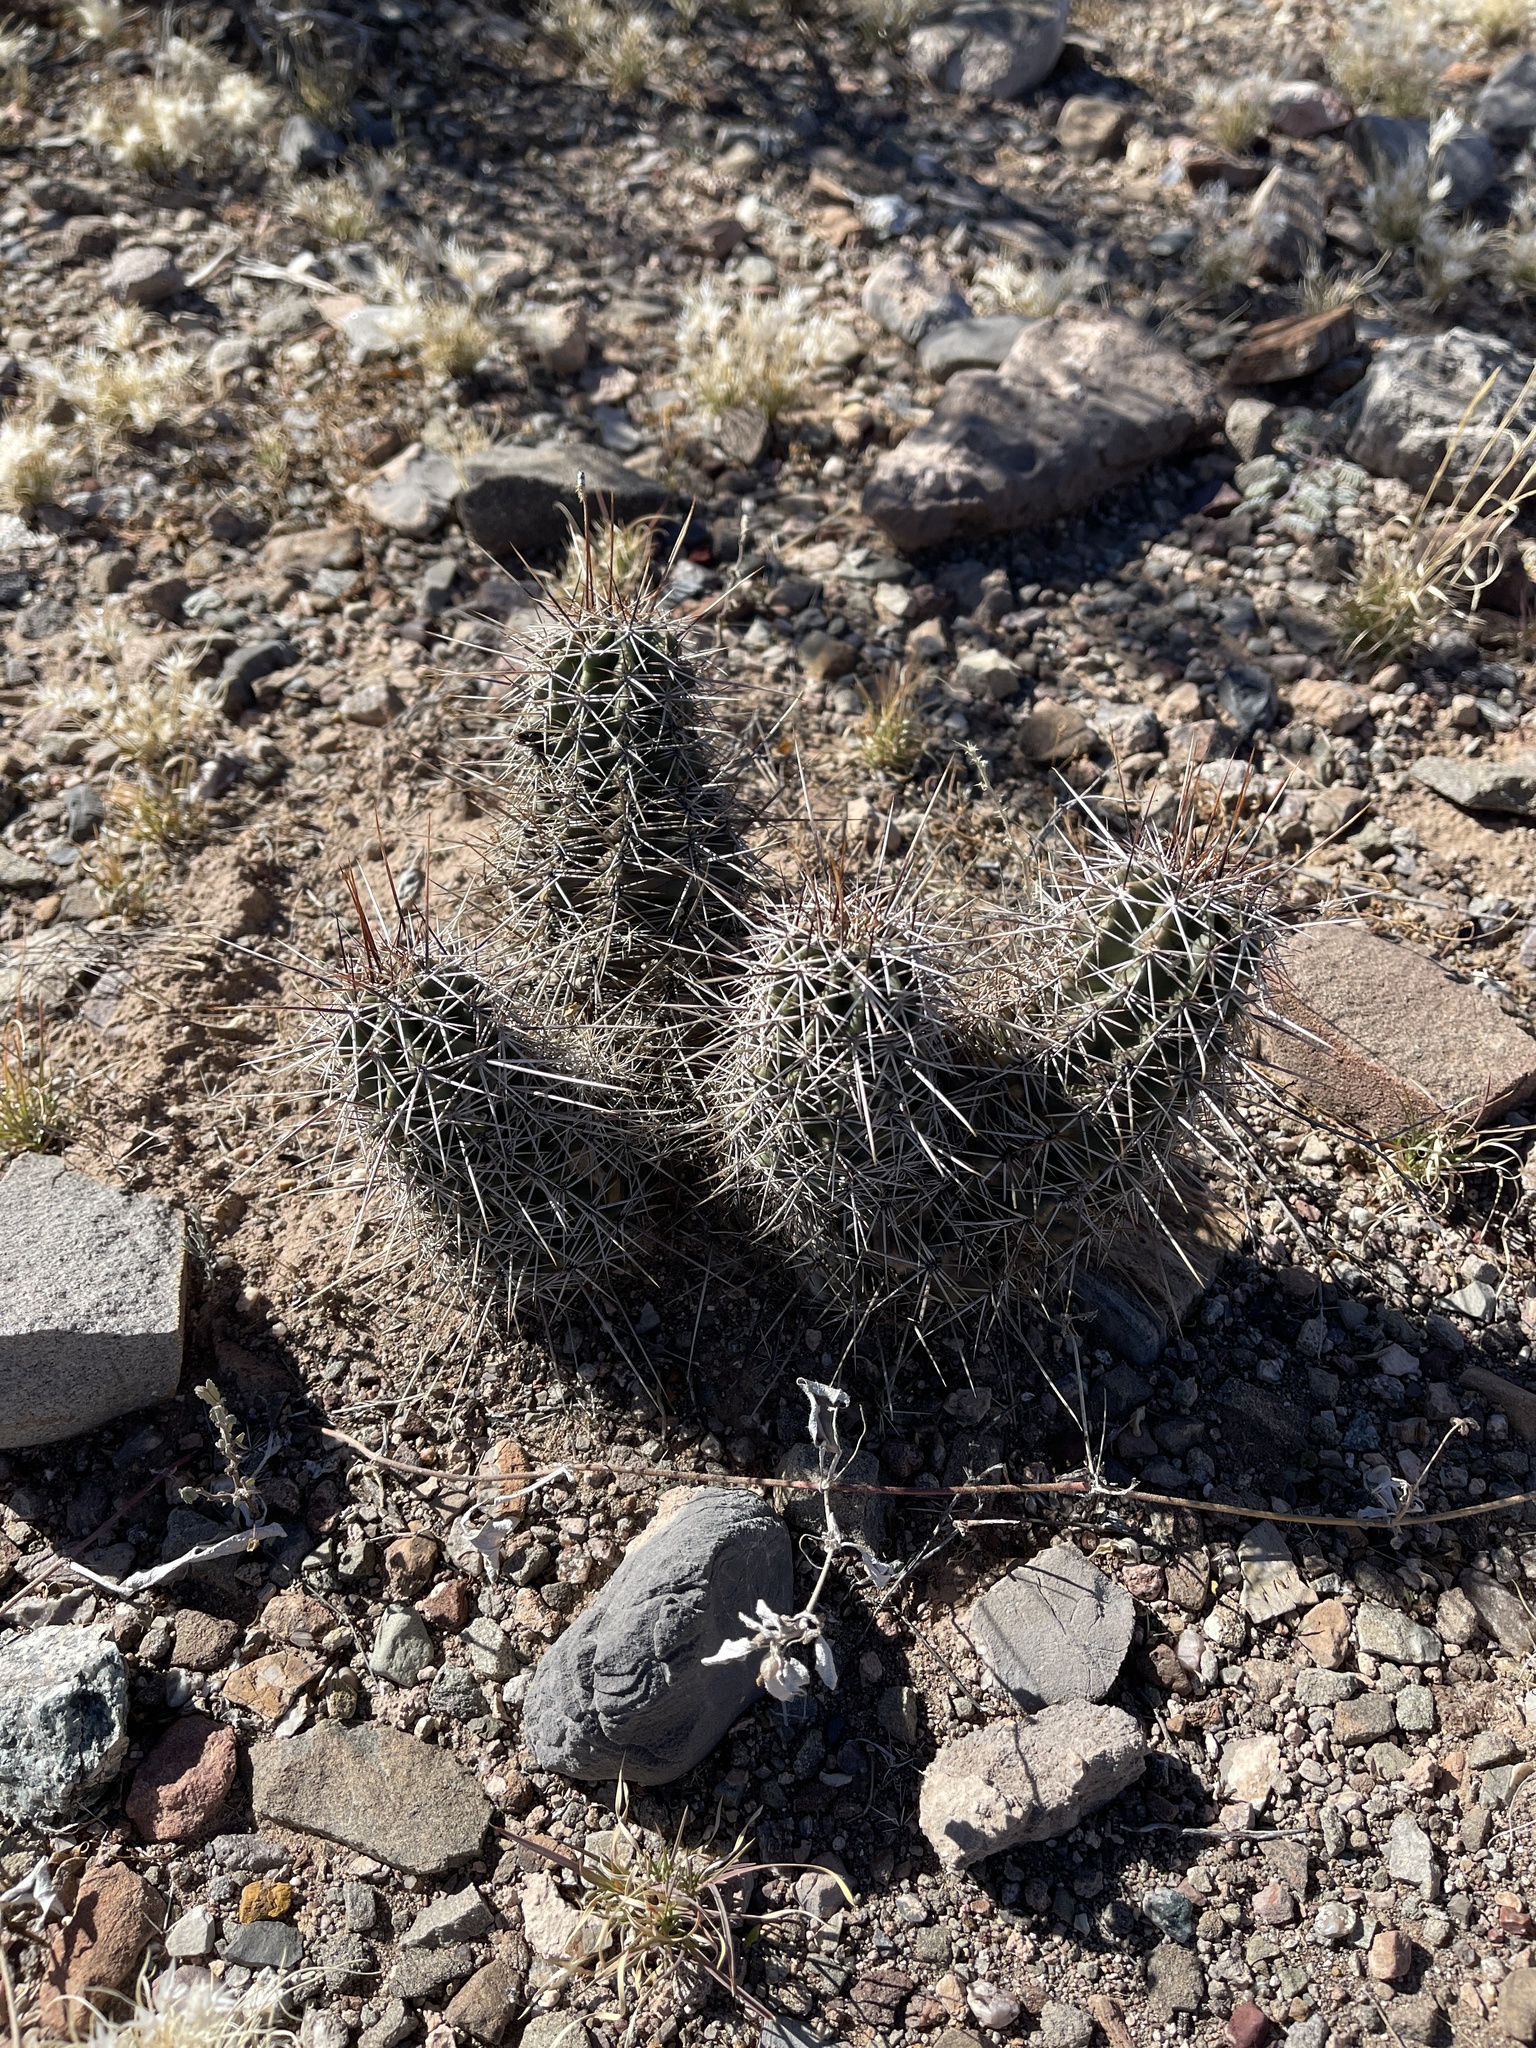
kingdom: Plantae
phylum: Tracheophyta
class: Magnoliopsida
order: Caryophyllales
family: Cactaceae
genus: Echinocereus
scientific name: Echinocereus fasciculatus
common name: Bundle hedgehog
